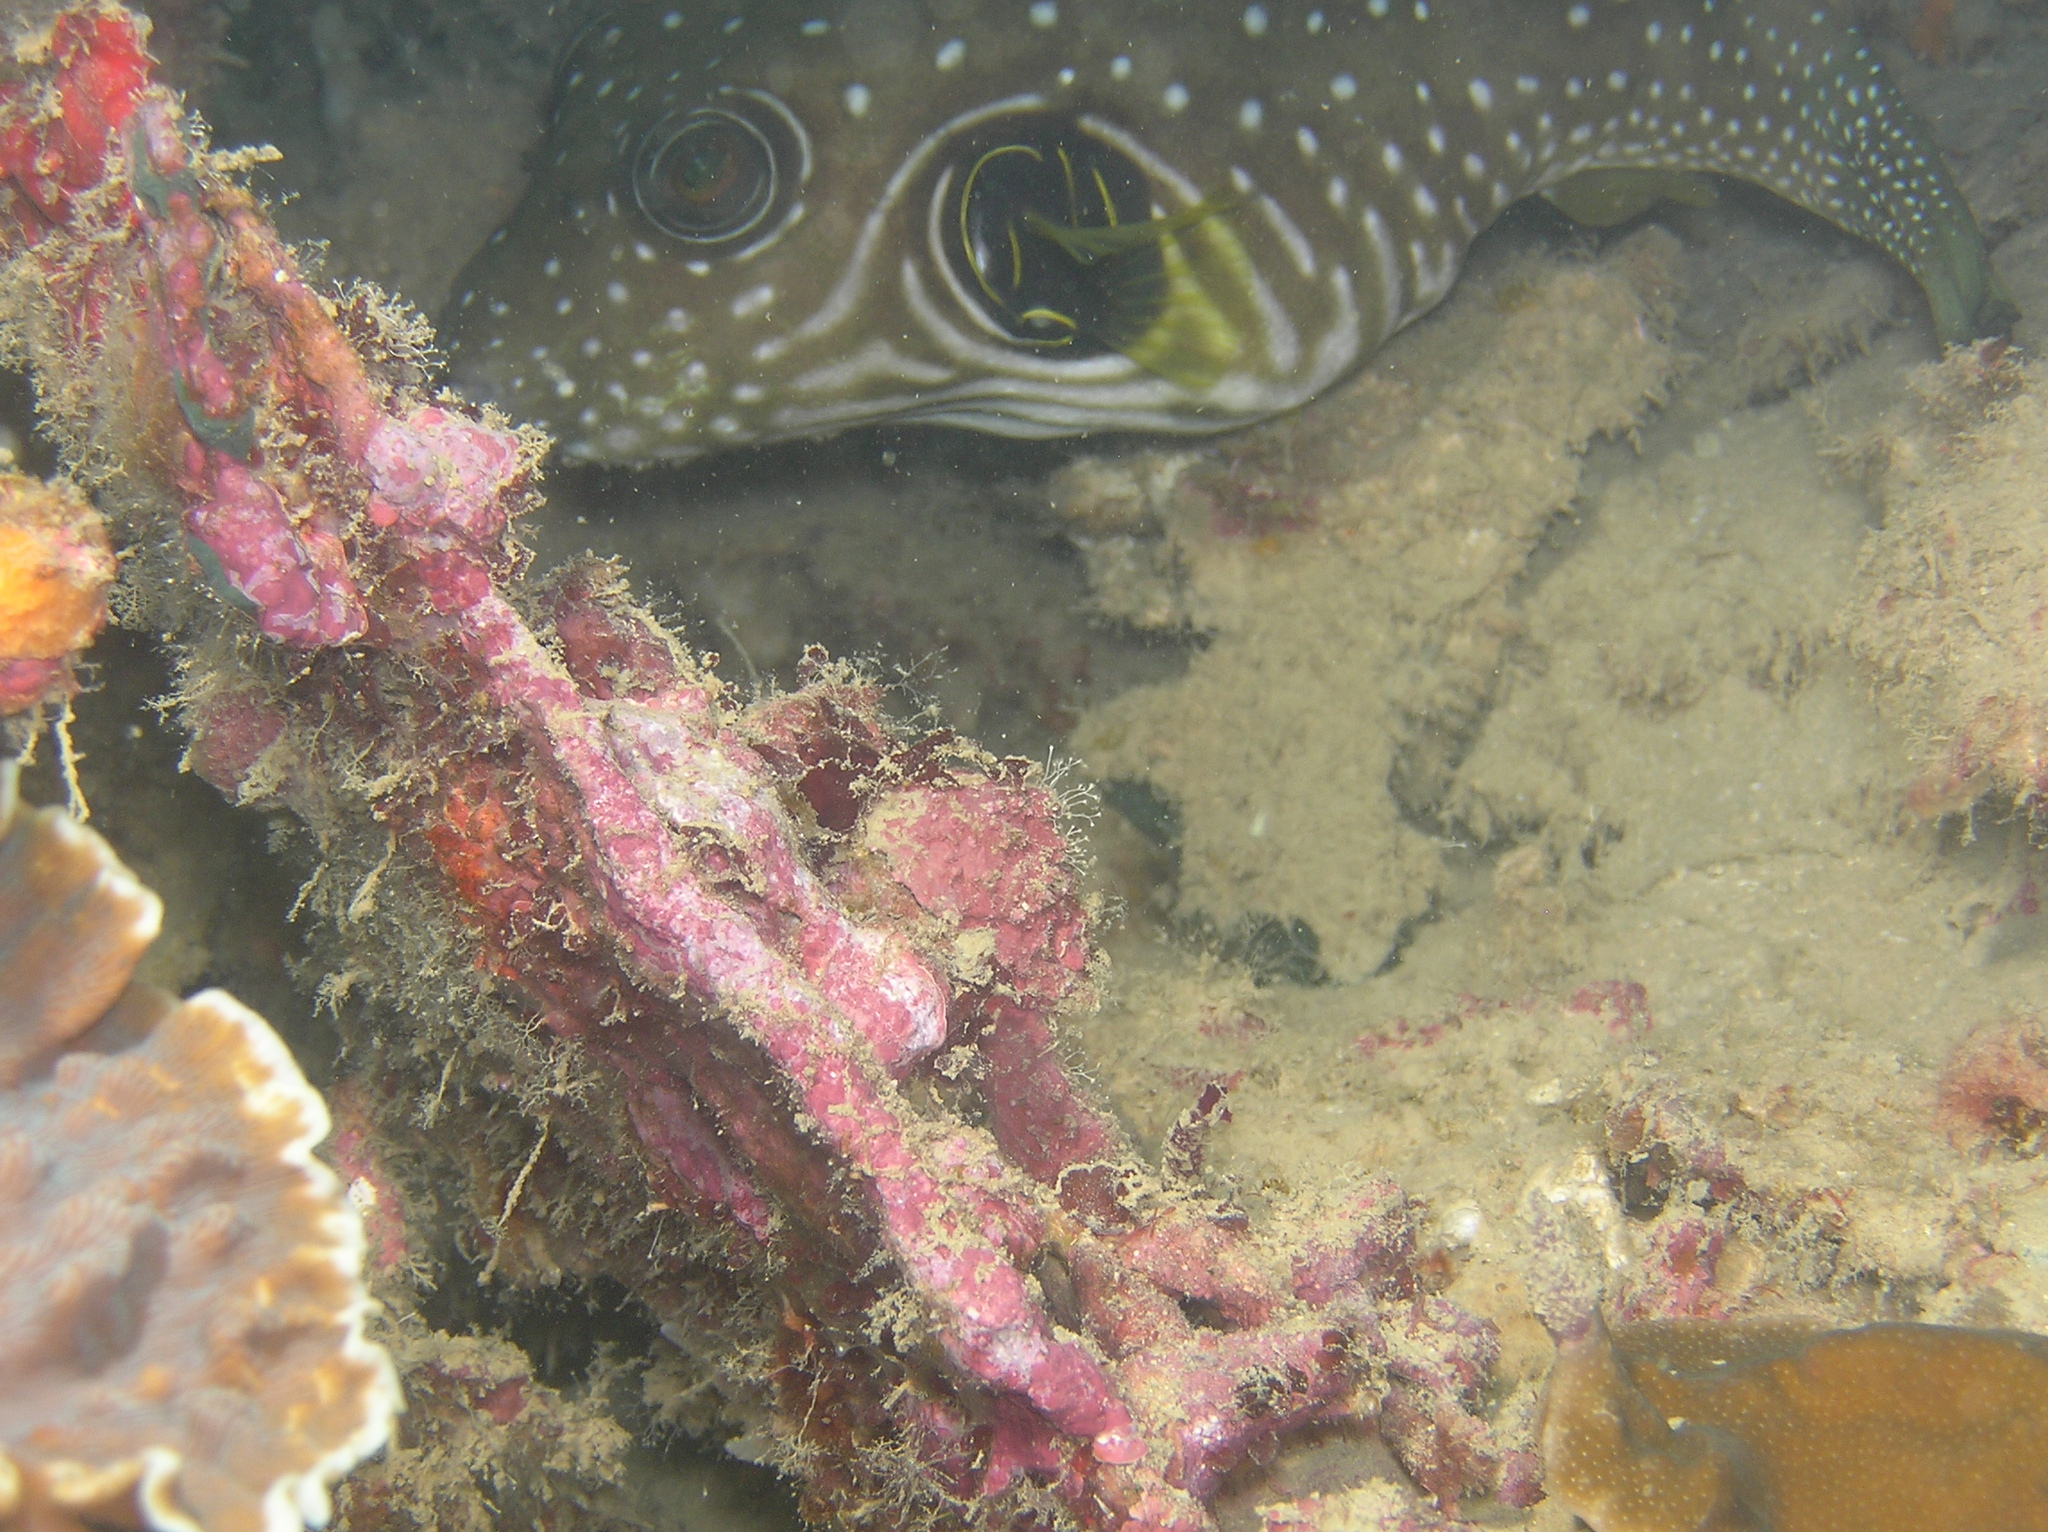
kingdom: Animalia
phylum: Chordata
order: Tetraodontiformes
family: Tetraodontidae
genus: Arothron
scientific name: Arothron hispidus
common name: Stripebelly puffer
